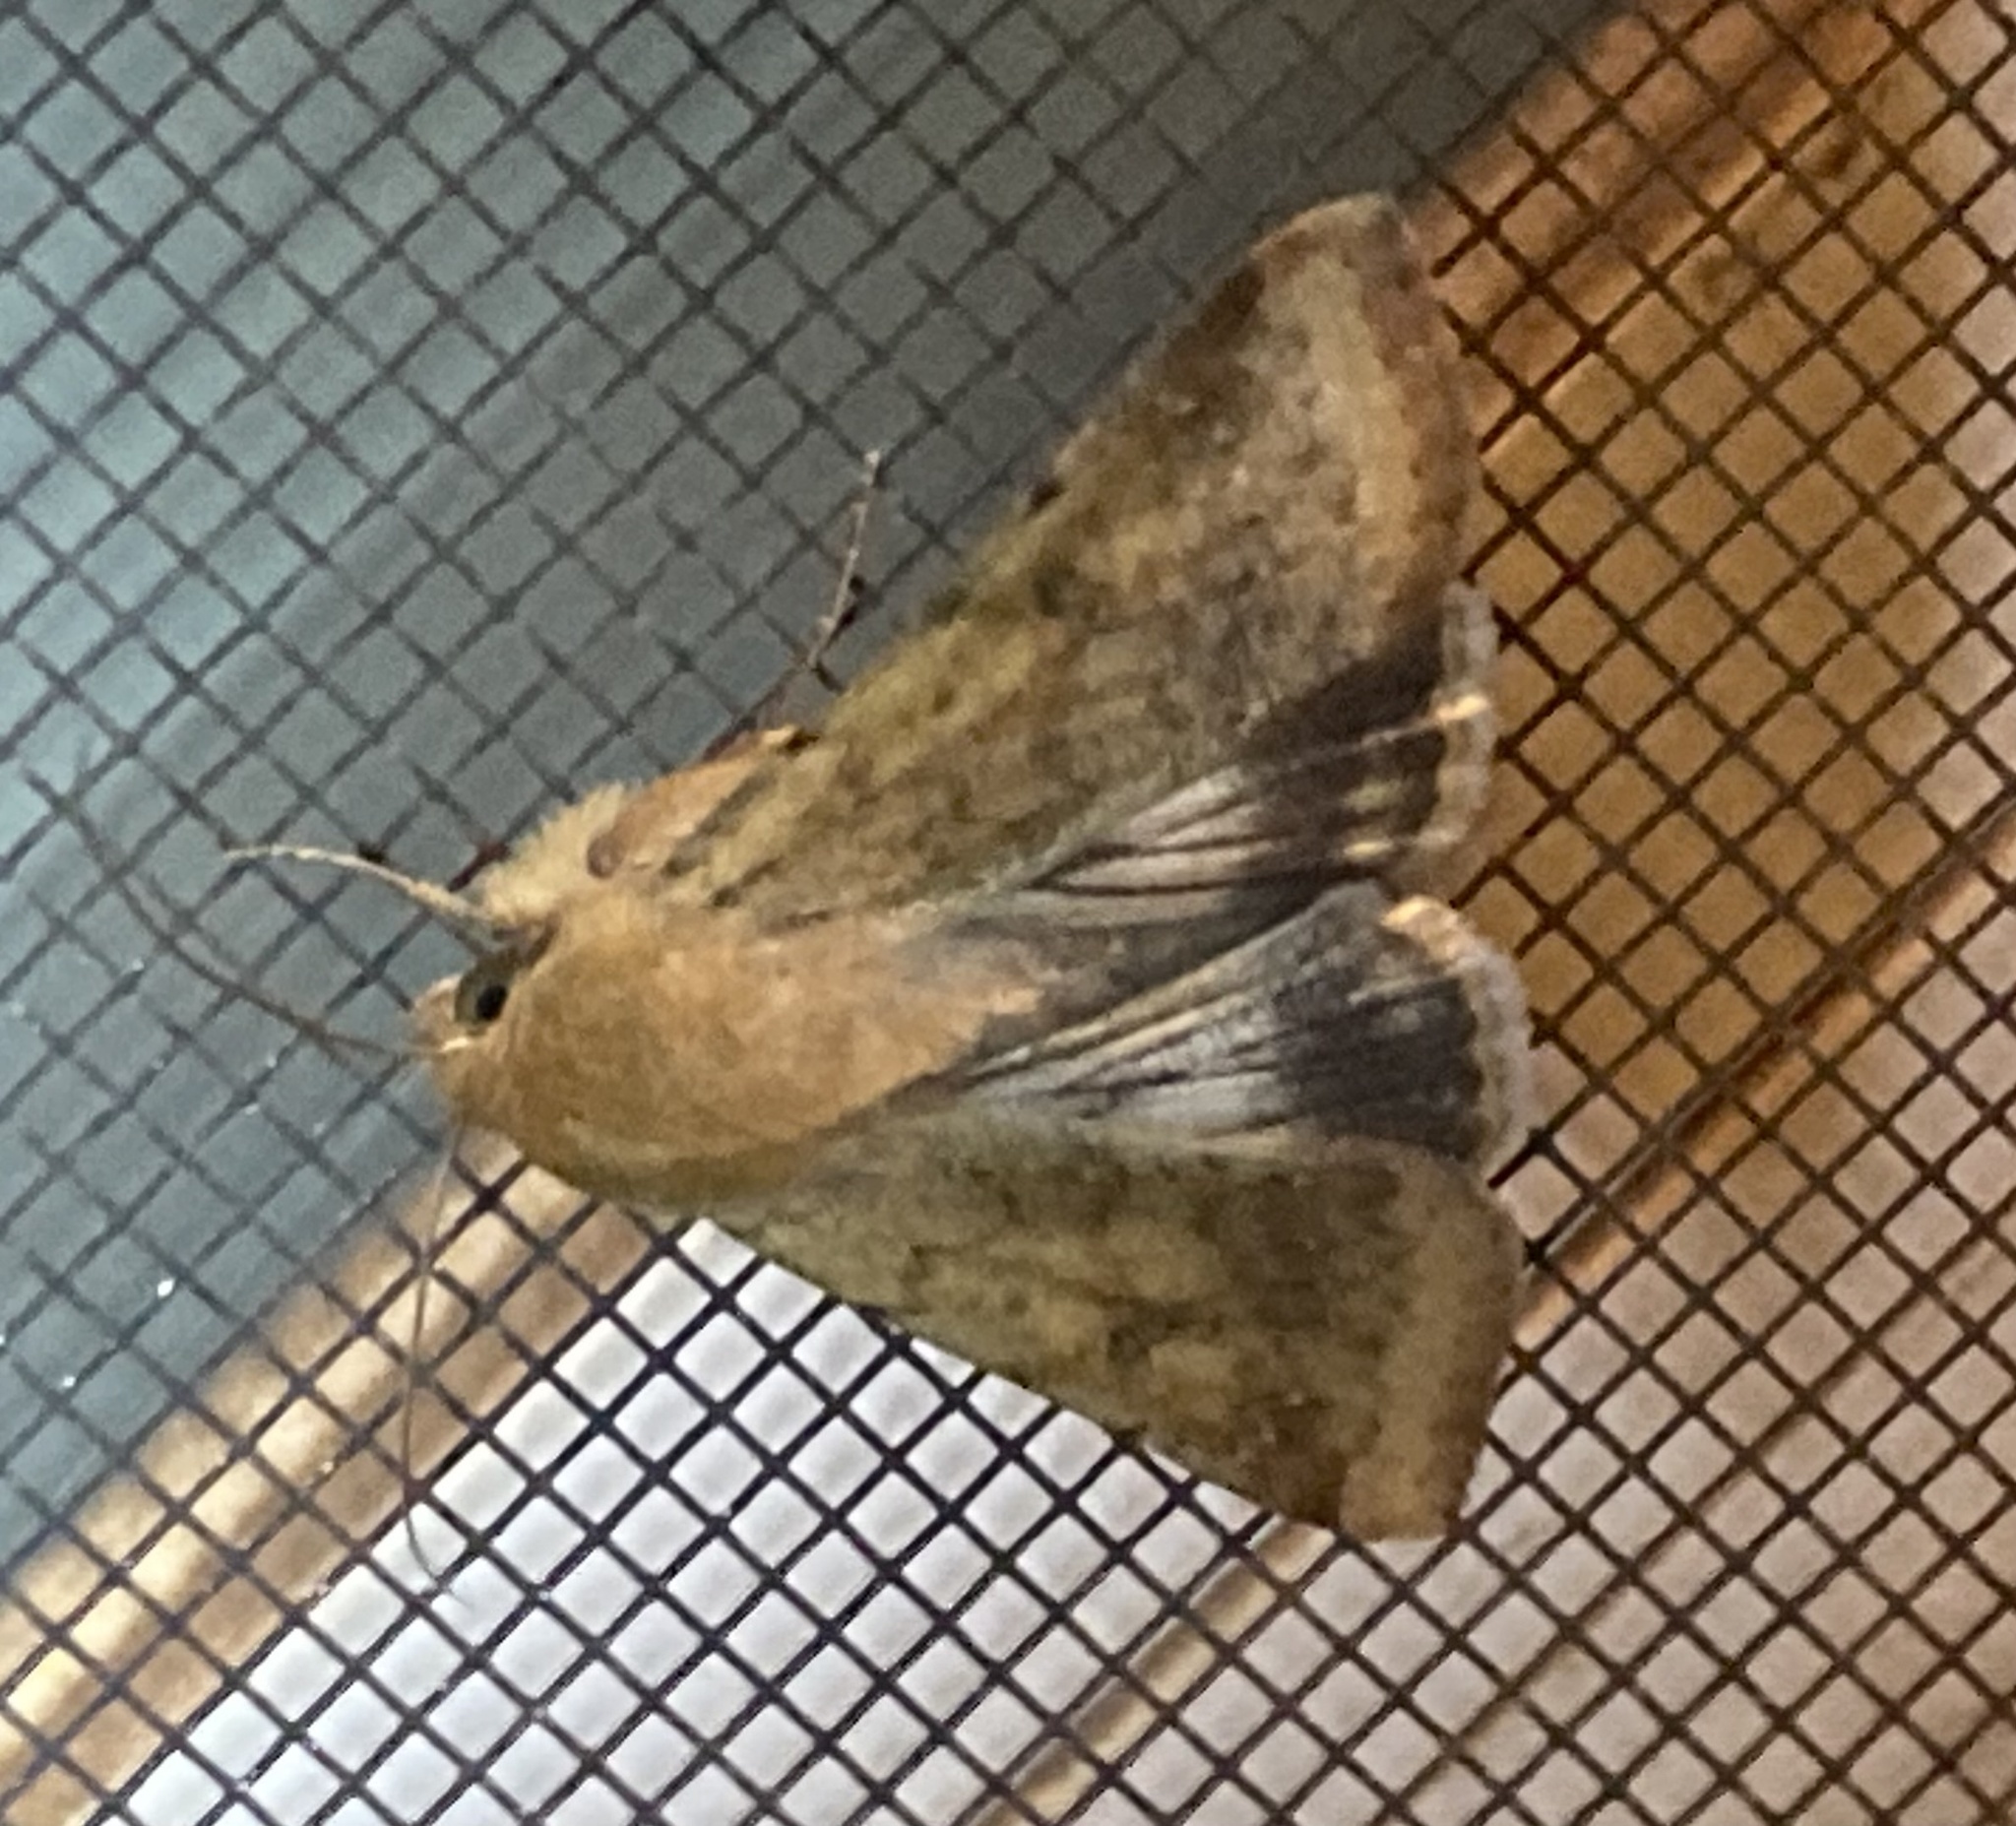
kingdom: Animalia
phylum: Arthropoda
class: Insecta
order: Lepidoptera
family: Noctuidae
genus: Helicoverpa
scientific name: Helicoverpa zea
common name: Bollworm
